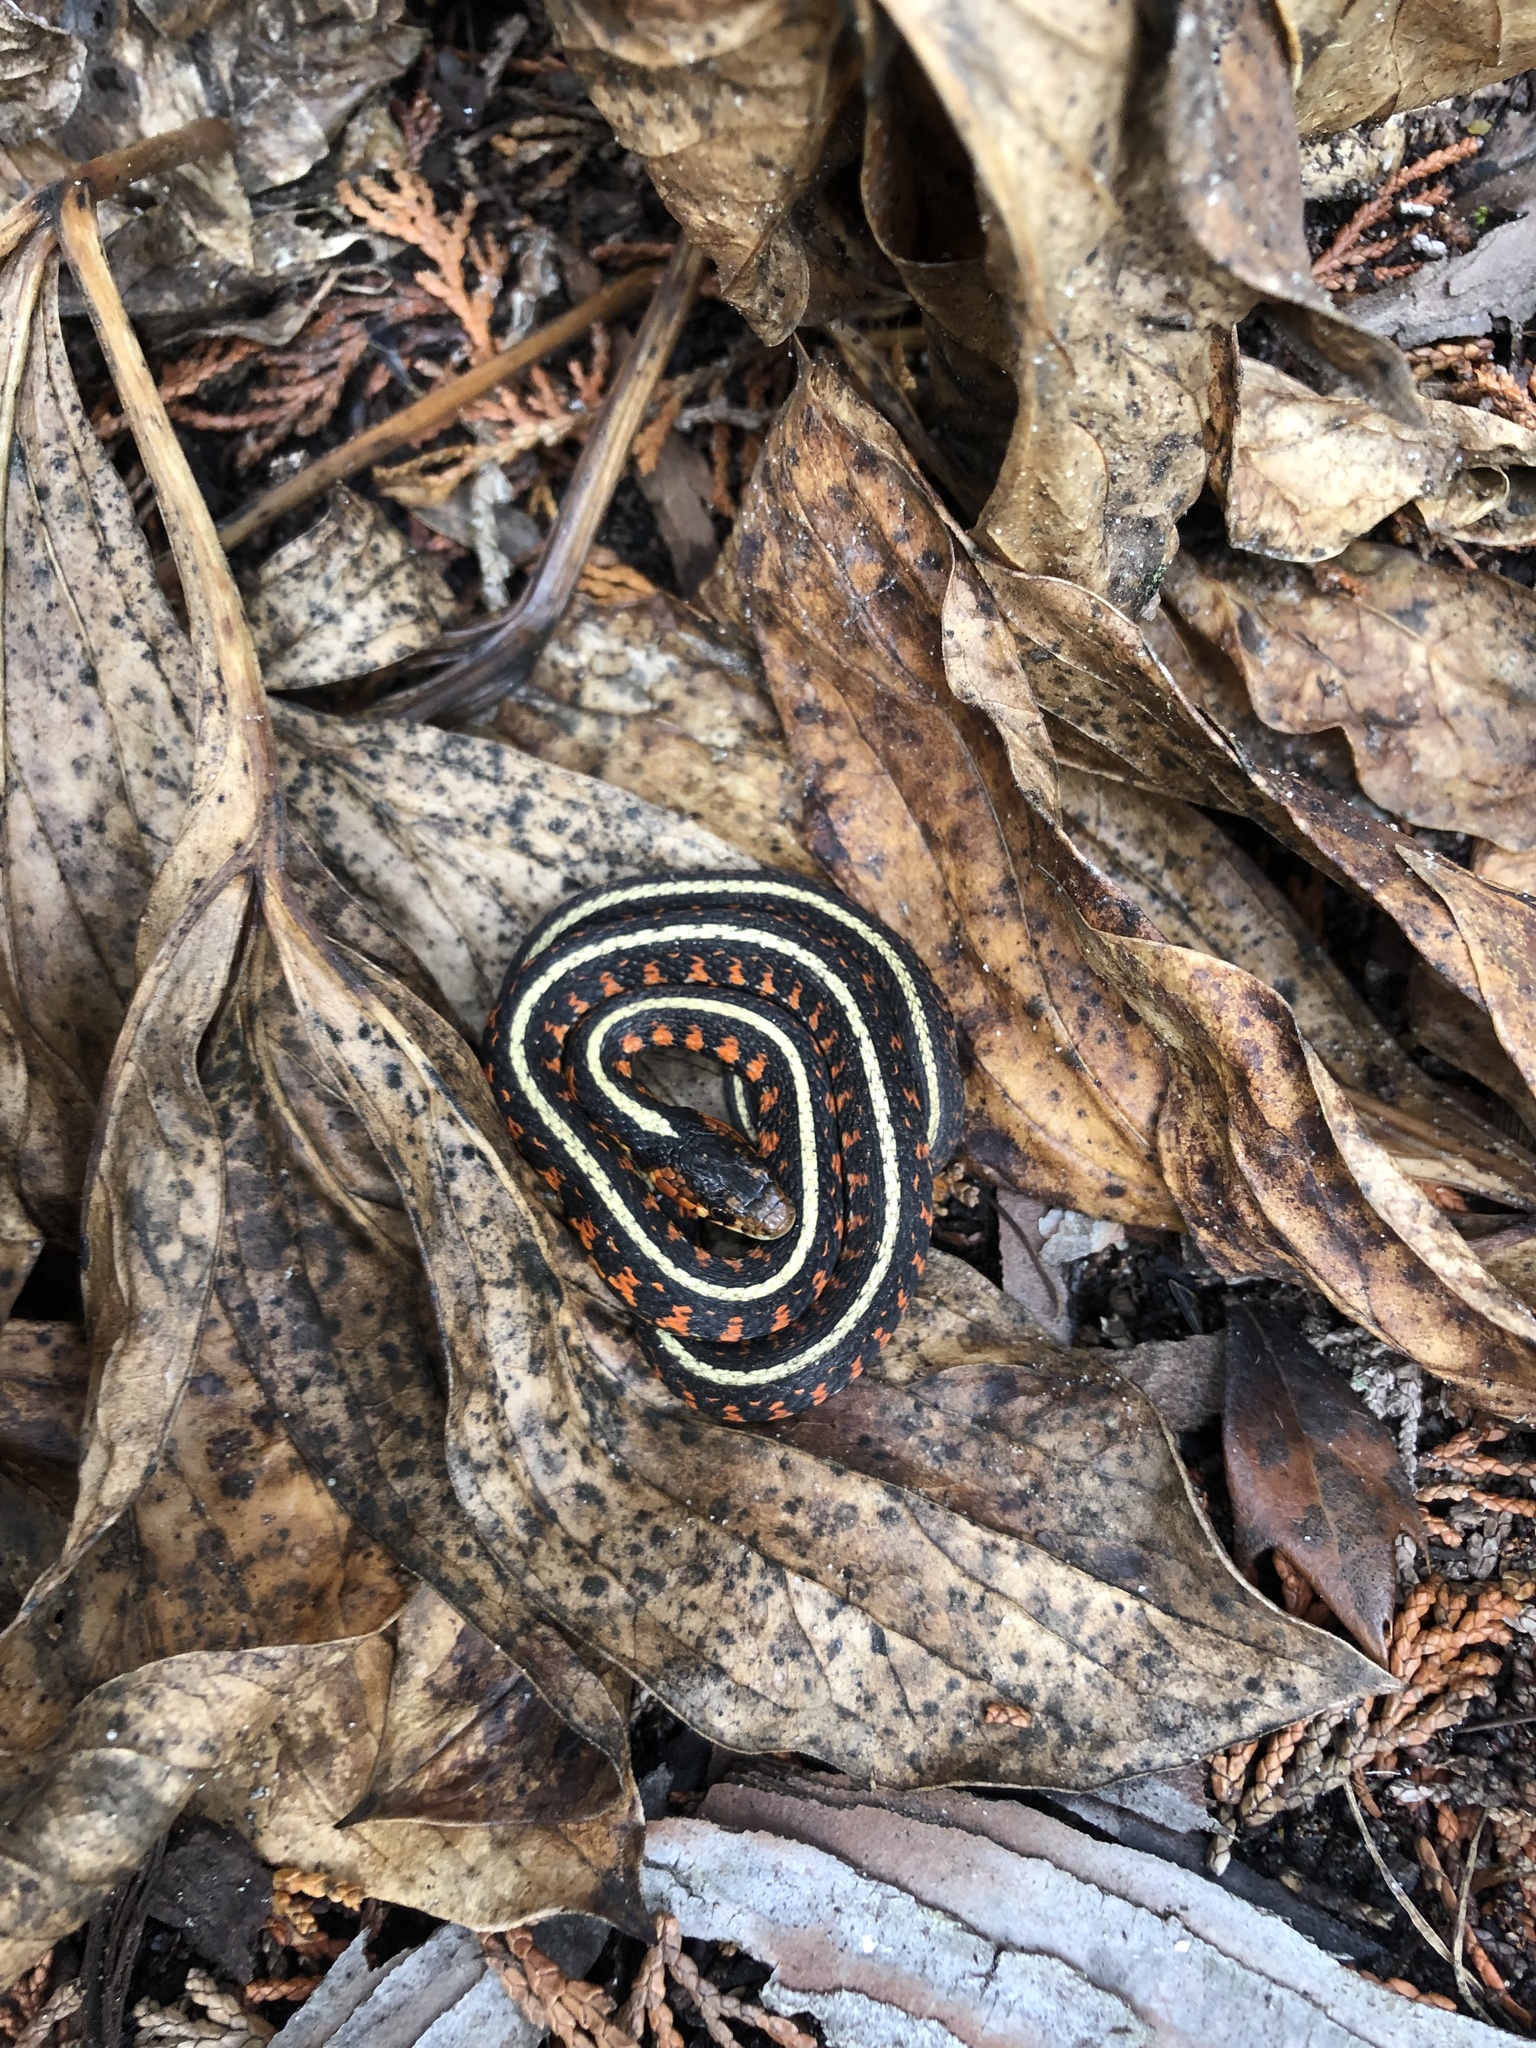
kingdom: Animalia
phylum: Chordata
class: Squamata
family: Colubridae
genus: Thamnophis
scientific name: Thamnophis sirtalis
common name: Common garter snake
